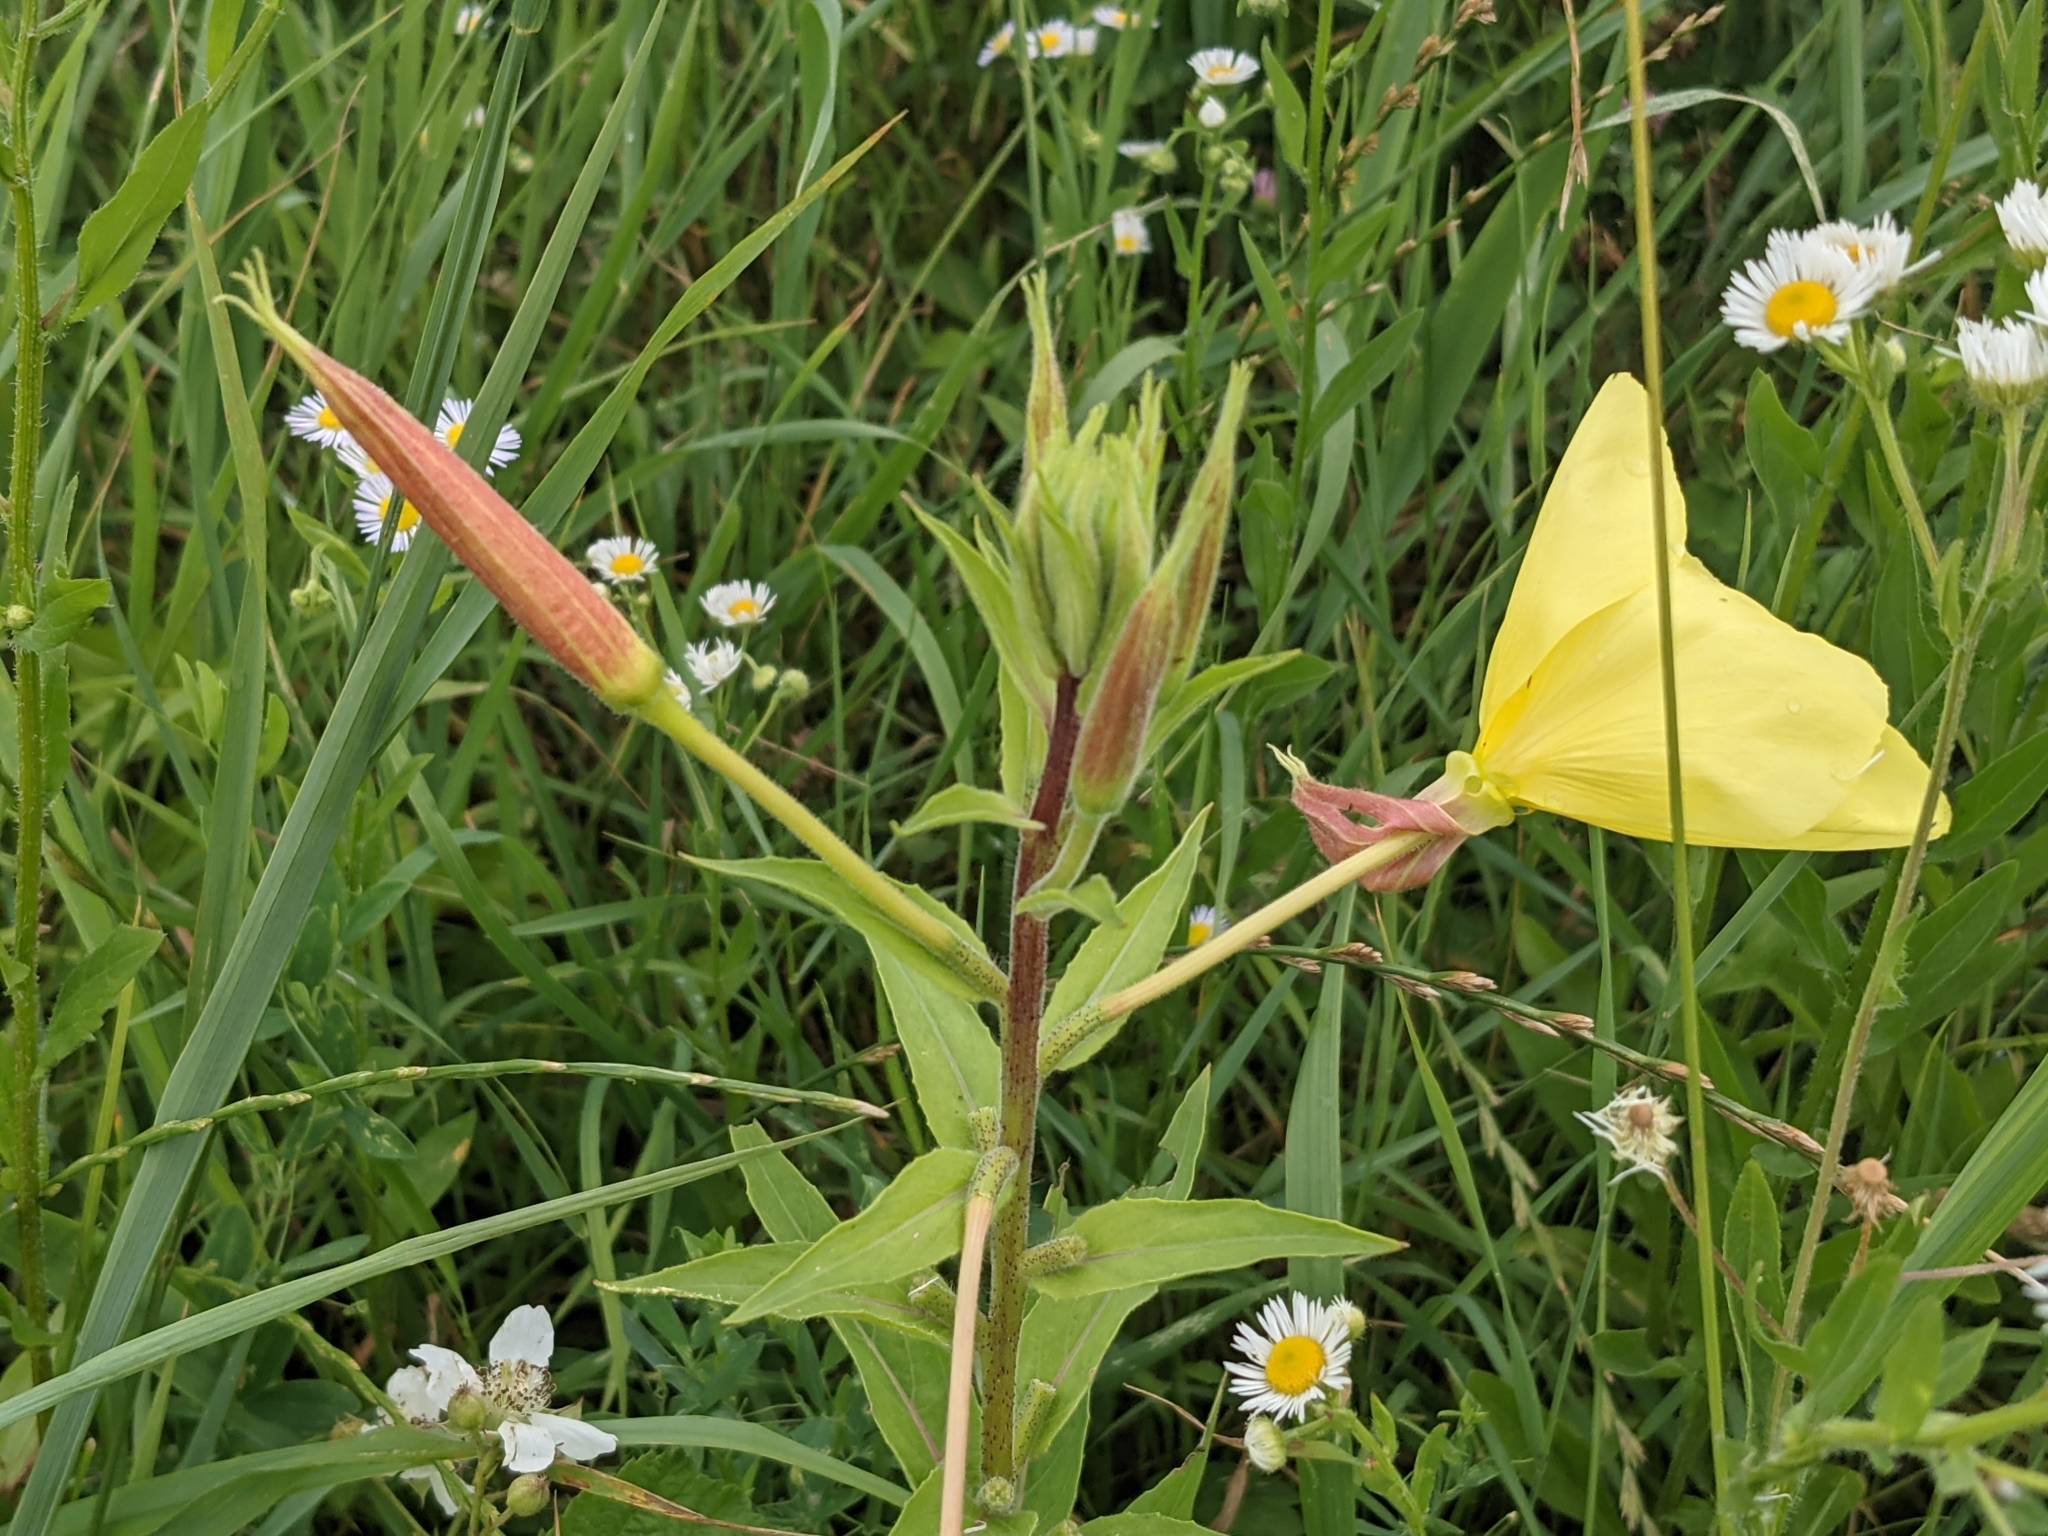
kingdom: Plantae
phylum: Tracheophyta
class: Magnoliopsida
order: Myrtales
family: Onagraceae
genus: Oenothera
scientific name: Oenothera glazioviana
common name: Large-flowered evening-primrose
